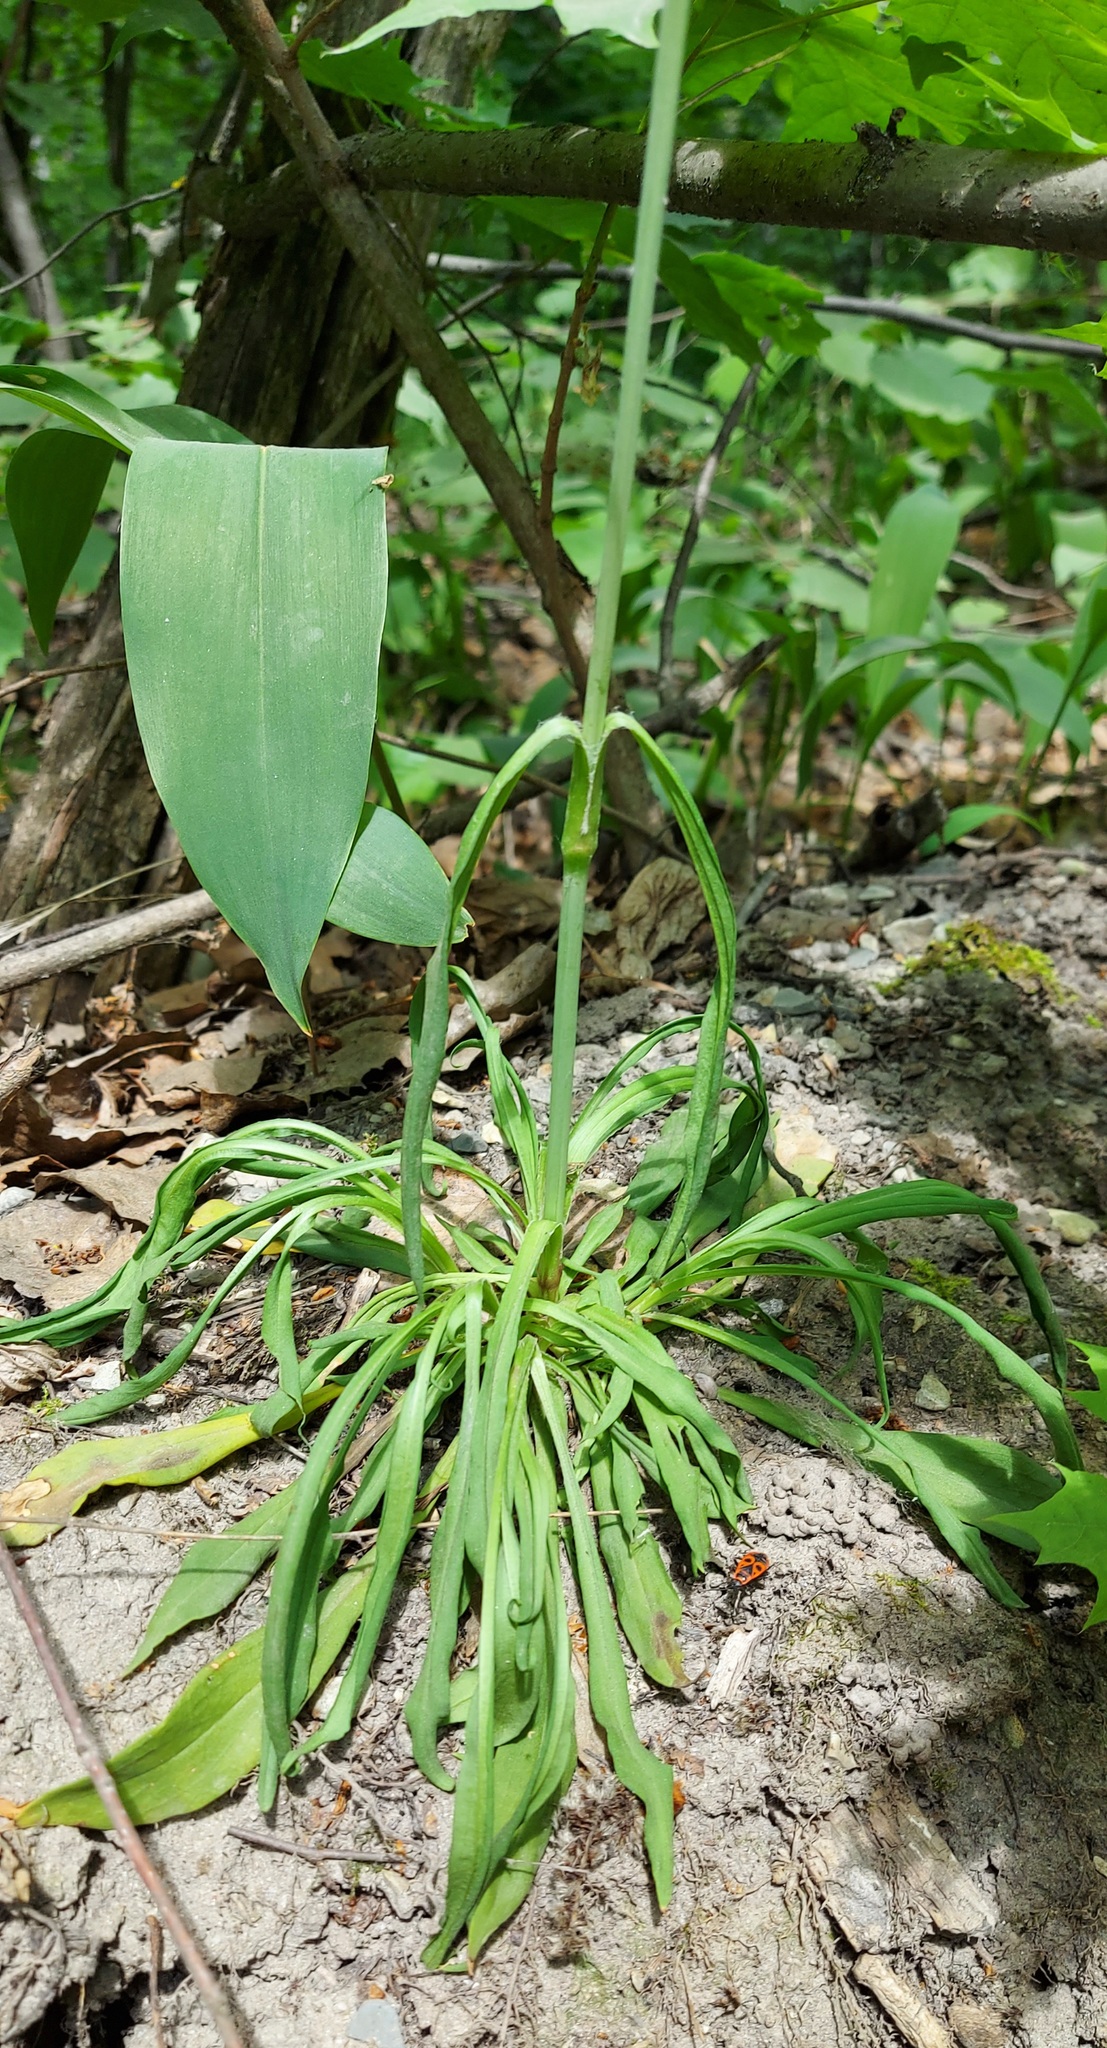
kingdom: Plantae
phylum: Tracheophyta
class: Magnoliopsida
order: Caryophyllales
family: Caryophyllaceae
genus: Viscaria
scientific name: Viscaria vulgaris
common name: Clammy campion
